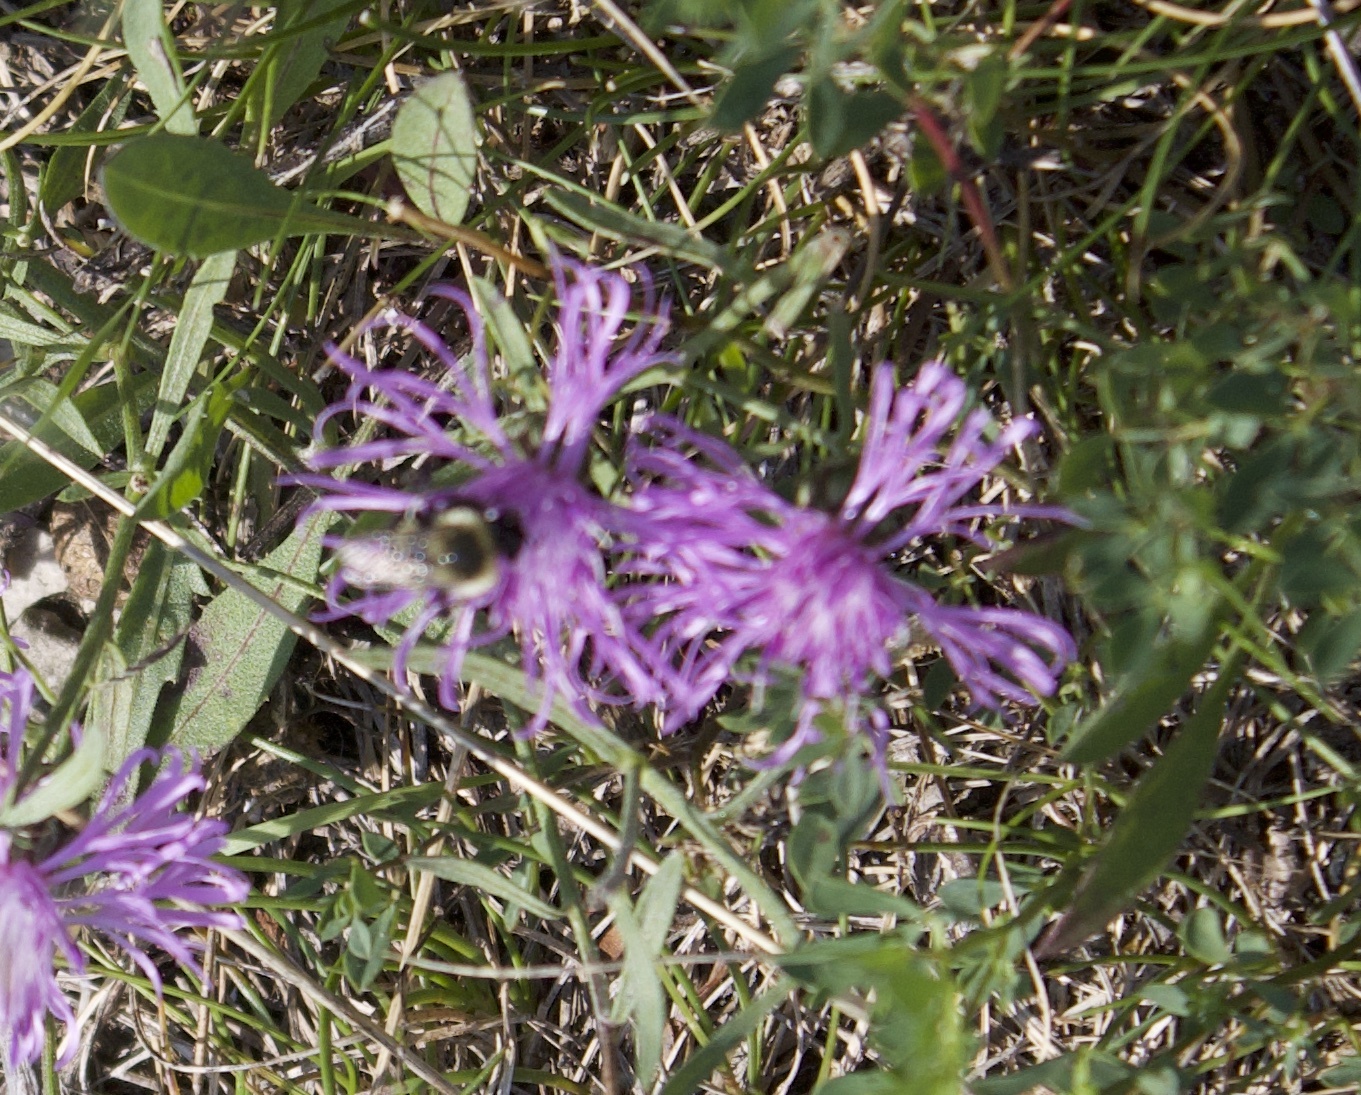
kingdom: Animalia
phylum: Arthropoda
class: Insecta
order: Hymenoptera
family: Apidae
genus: Bombus
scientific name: Bombus impatiens
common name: Common eastern bumble bee
